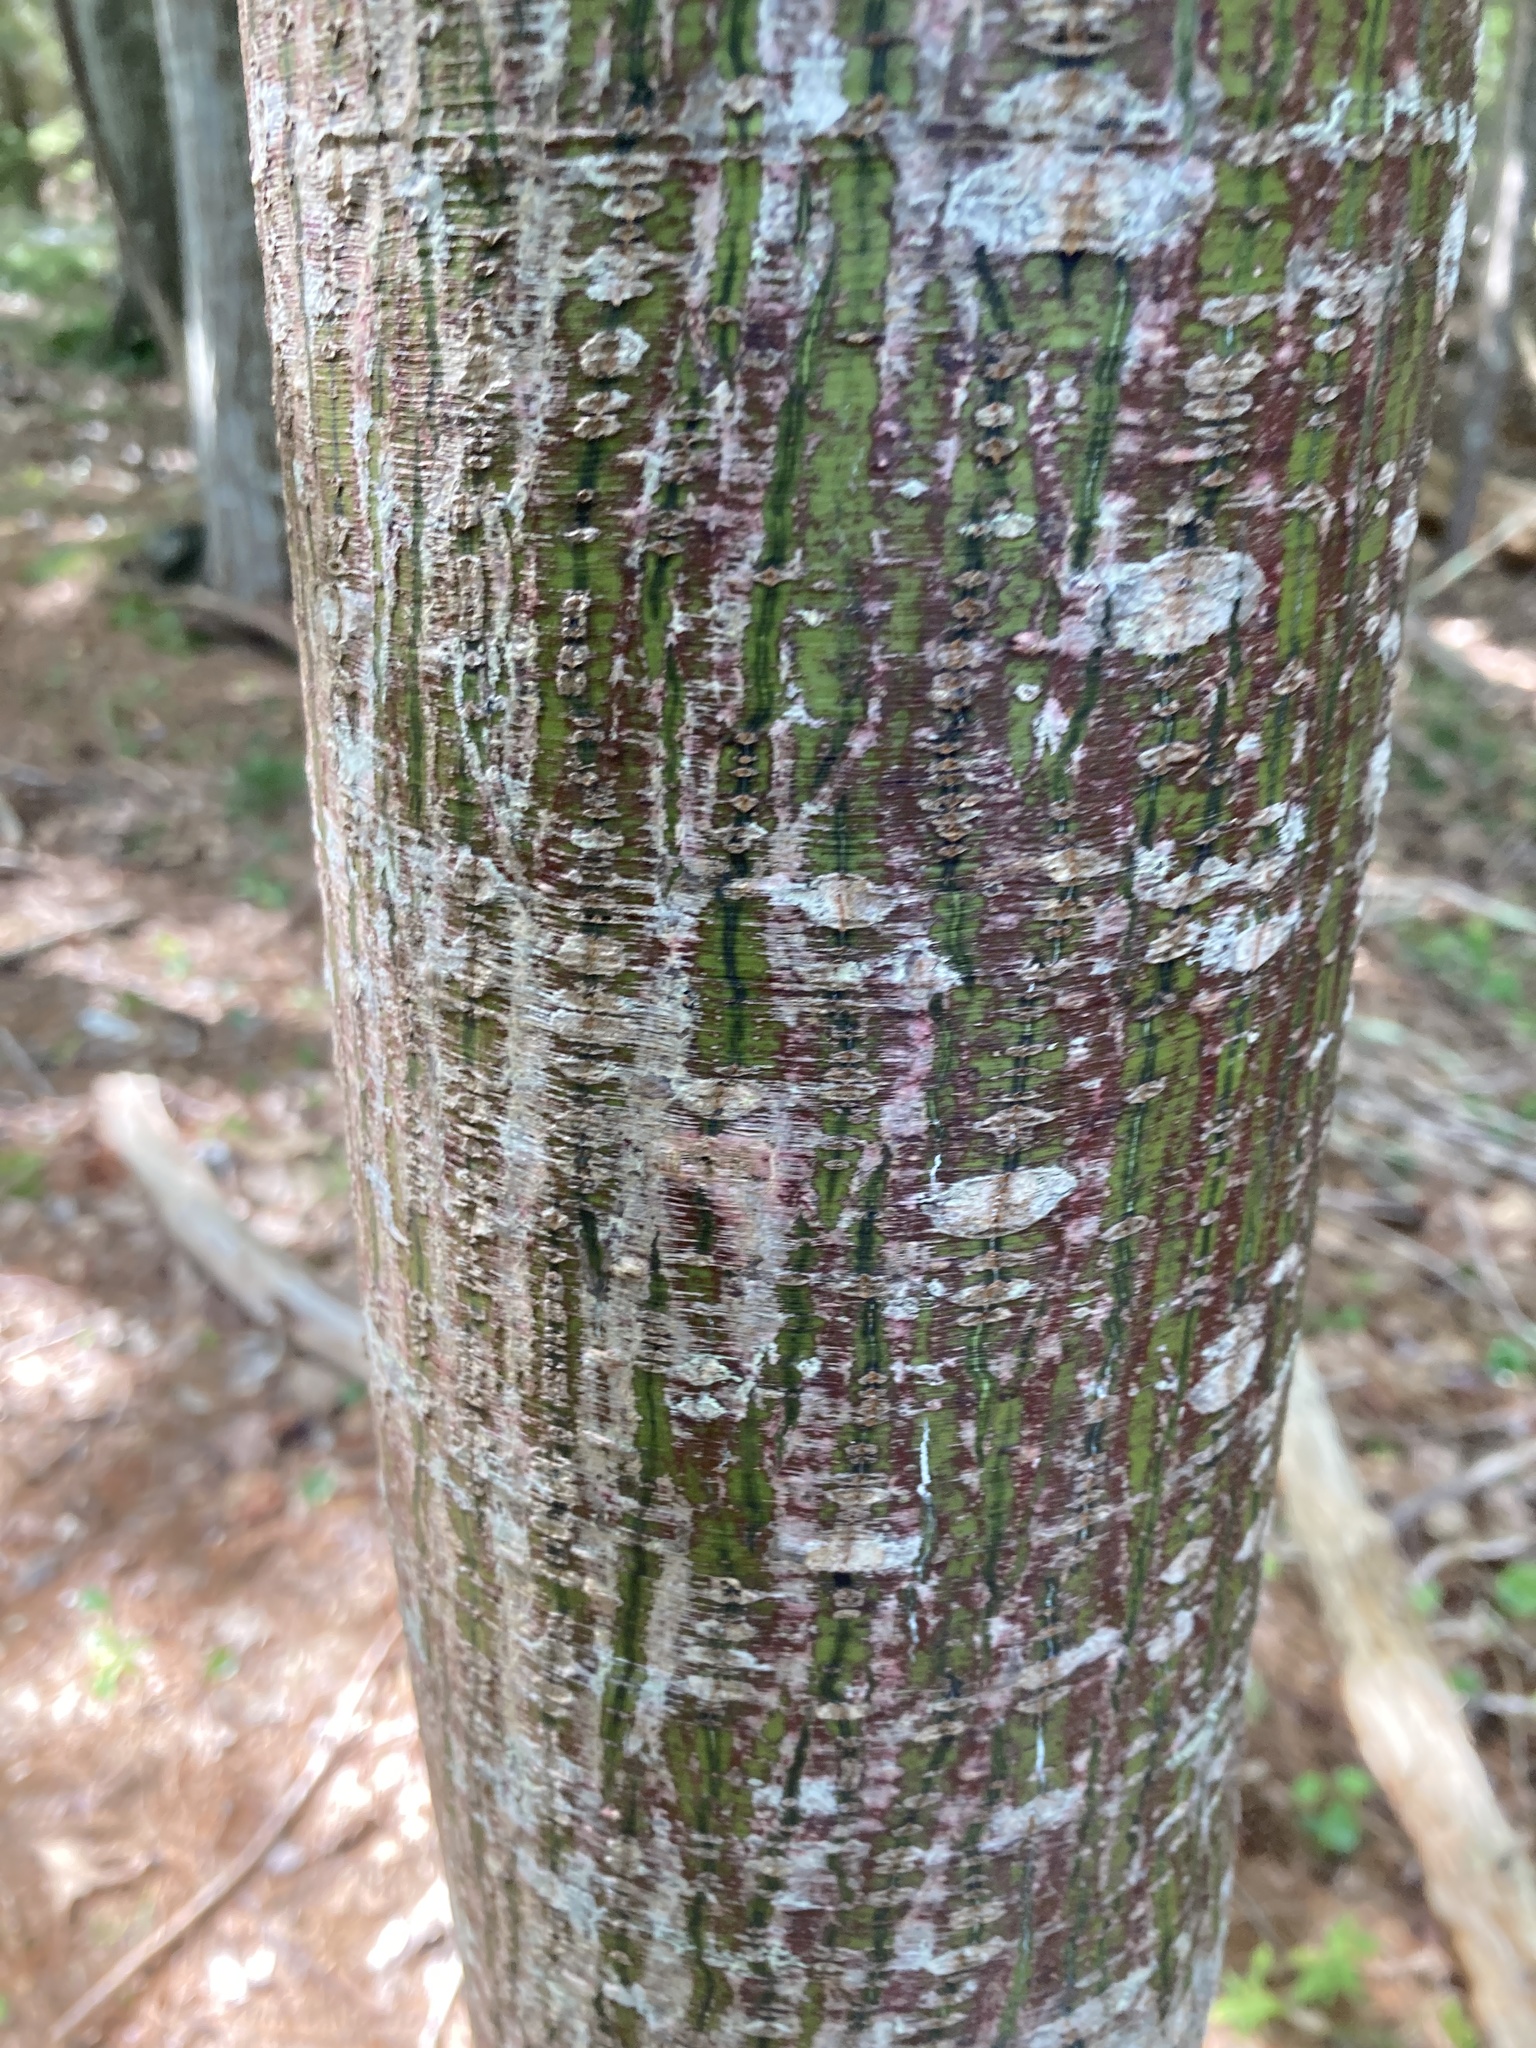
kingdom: Plantae
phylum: Tracheophyta
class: Magnoliopsida
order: Sapindales
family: Sapindaceae
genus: Acer
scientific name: Acer pensylvanicum
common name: Moosewood
